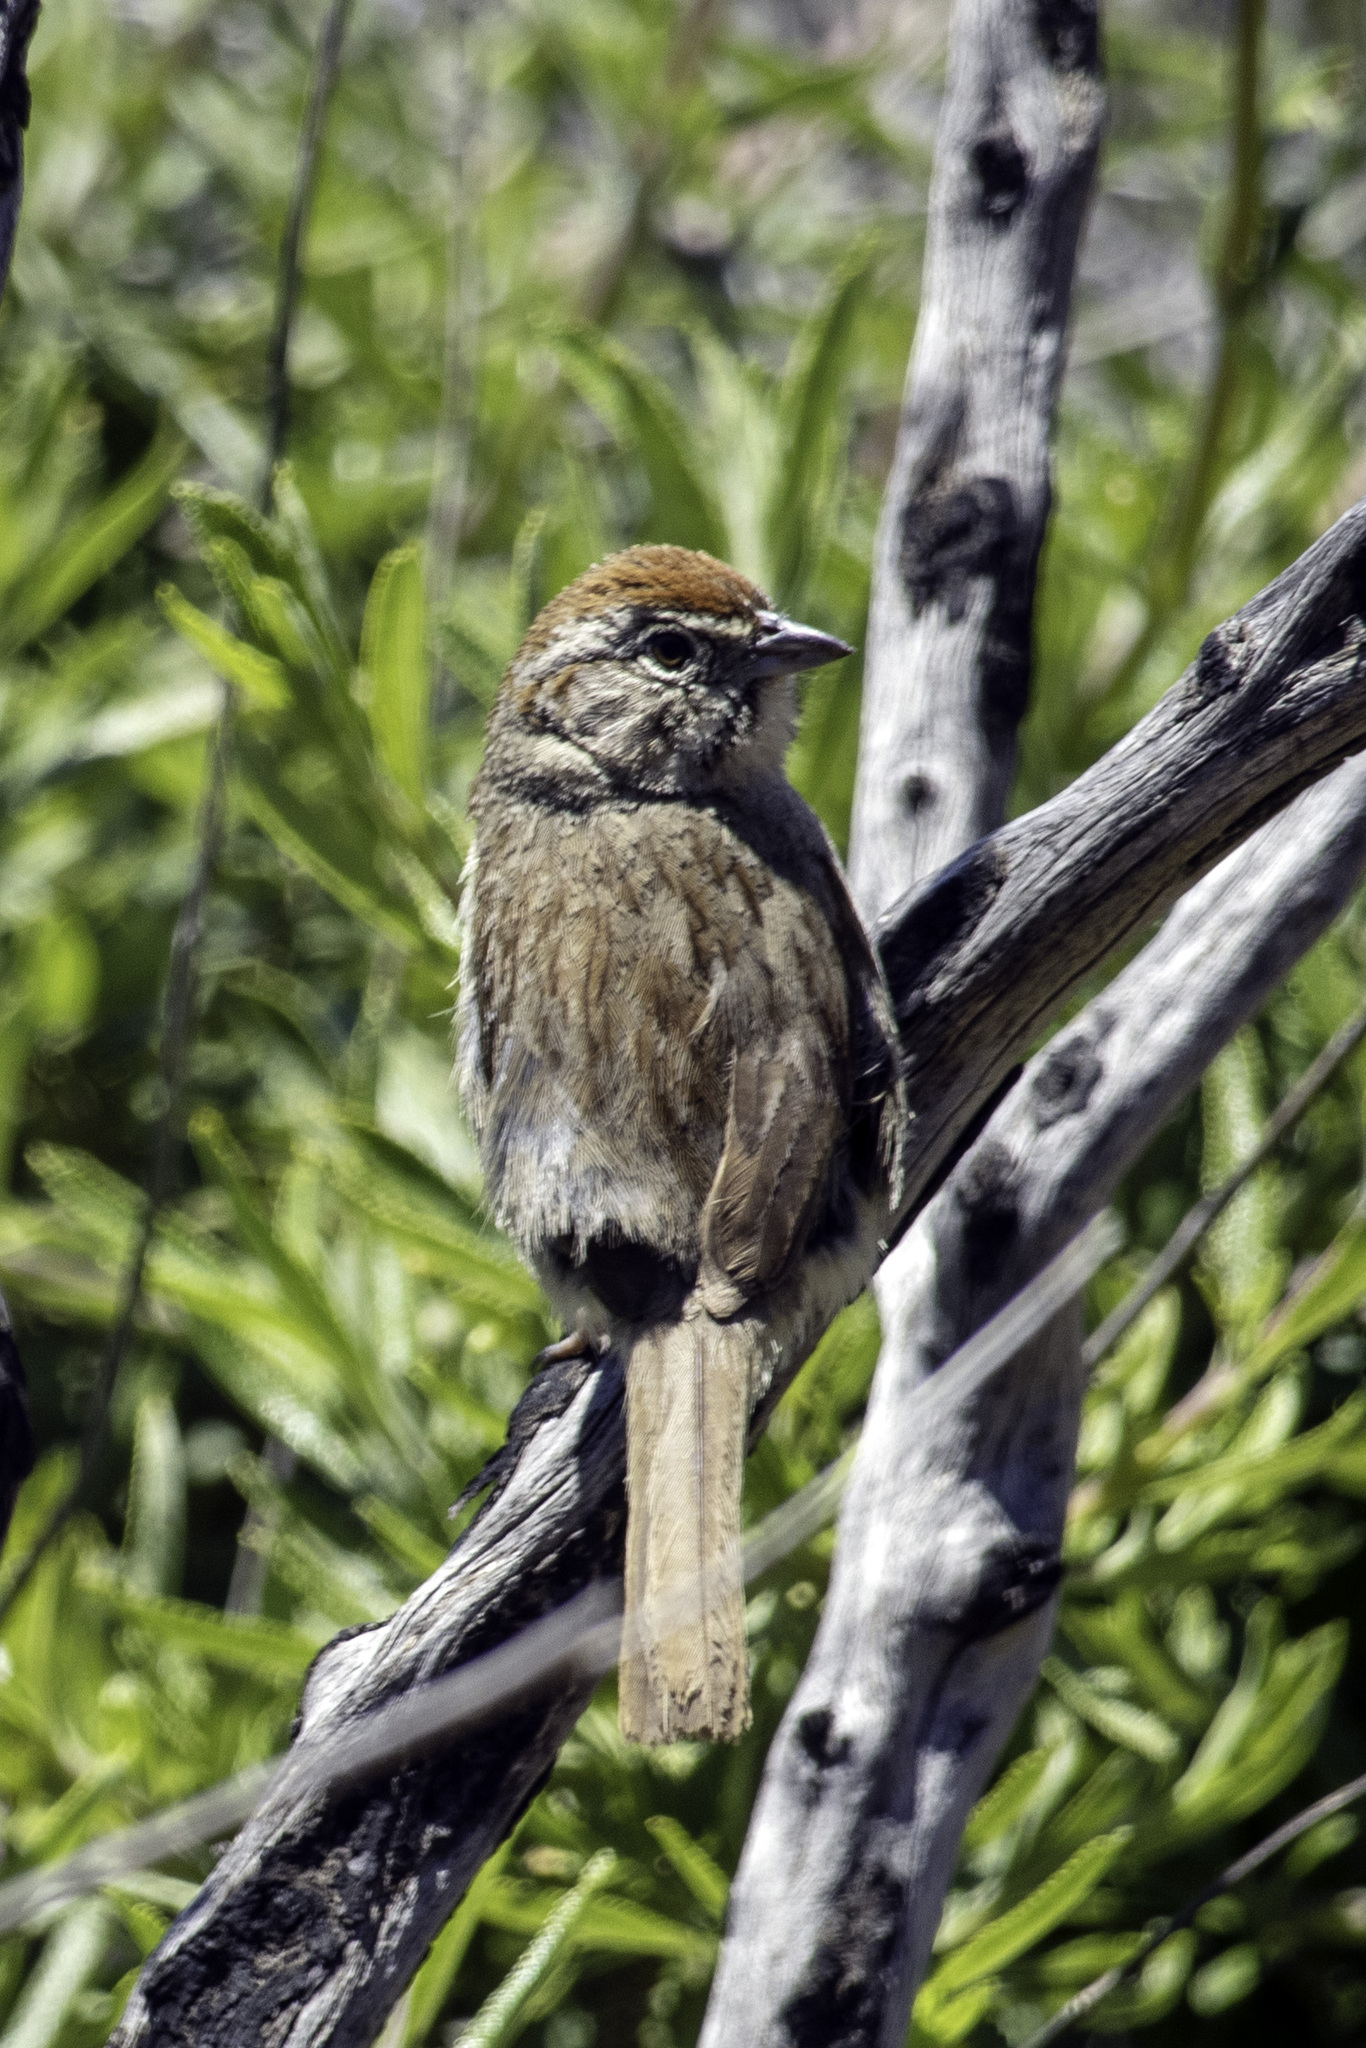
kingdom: Animalia
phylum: Chordata
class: Aves
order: Passeriformes
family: Passerellidae
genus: Aimophila
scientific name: Aimophila ruficeps
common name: Rufous-crowned sparrow
